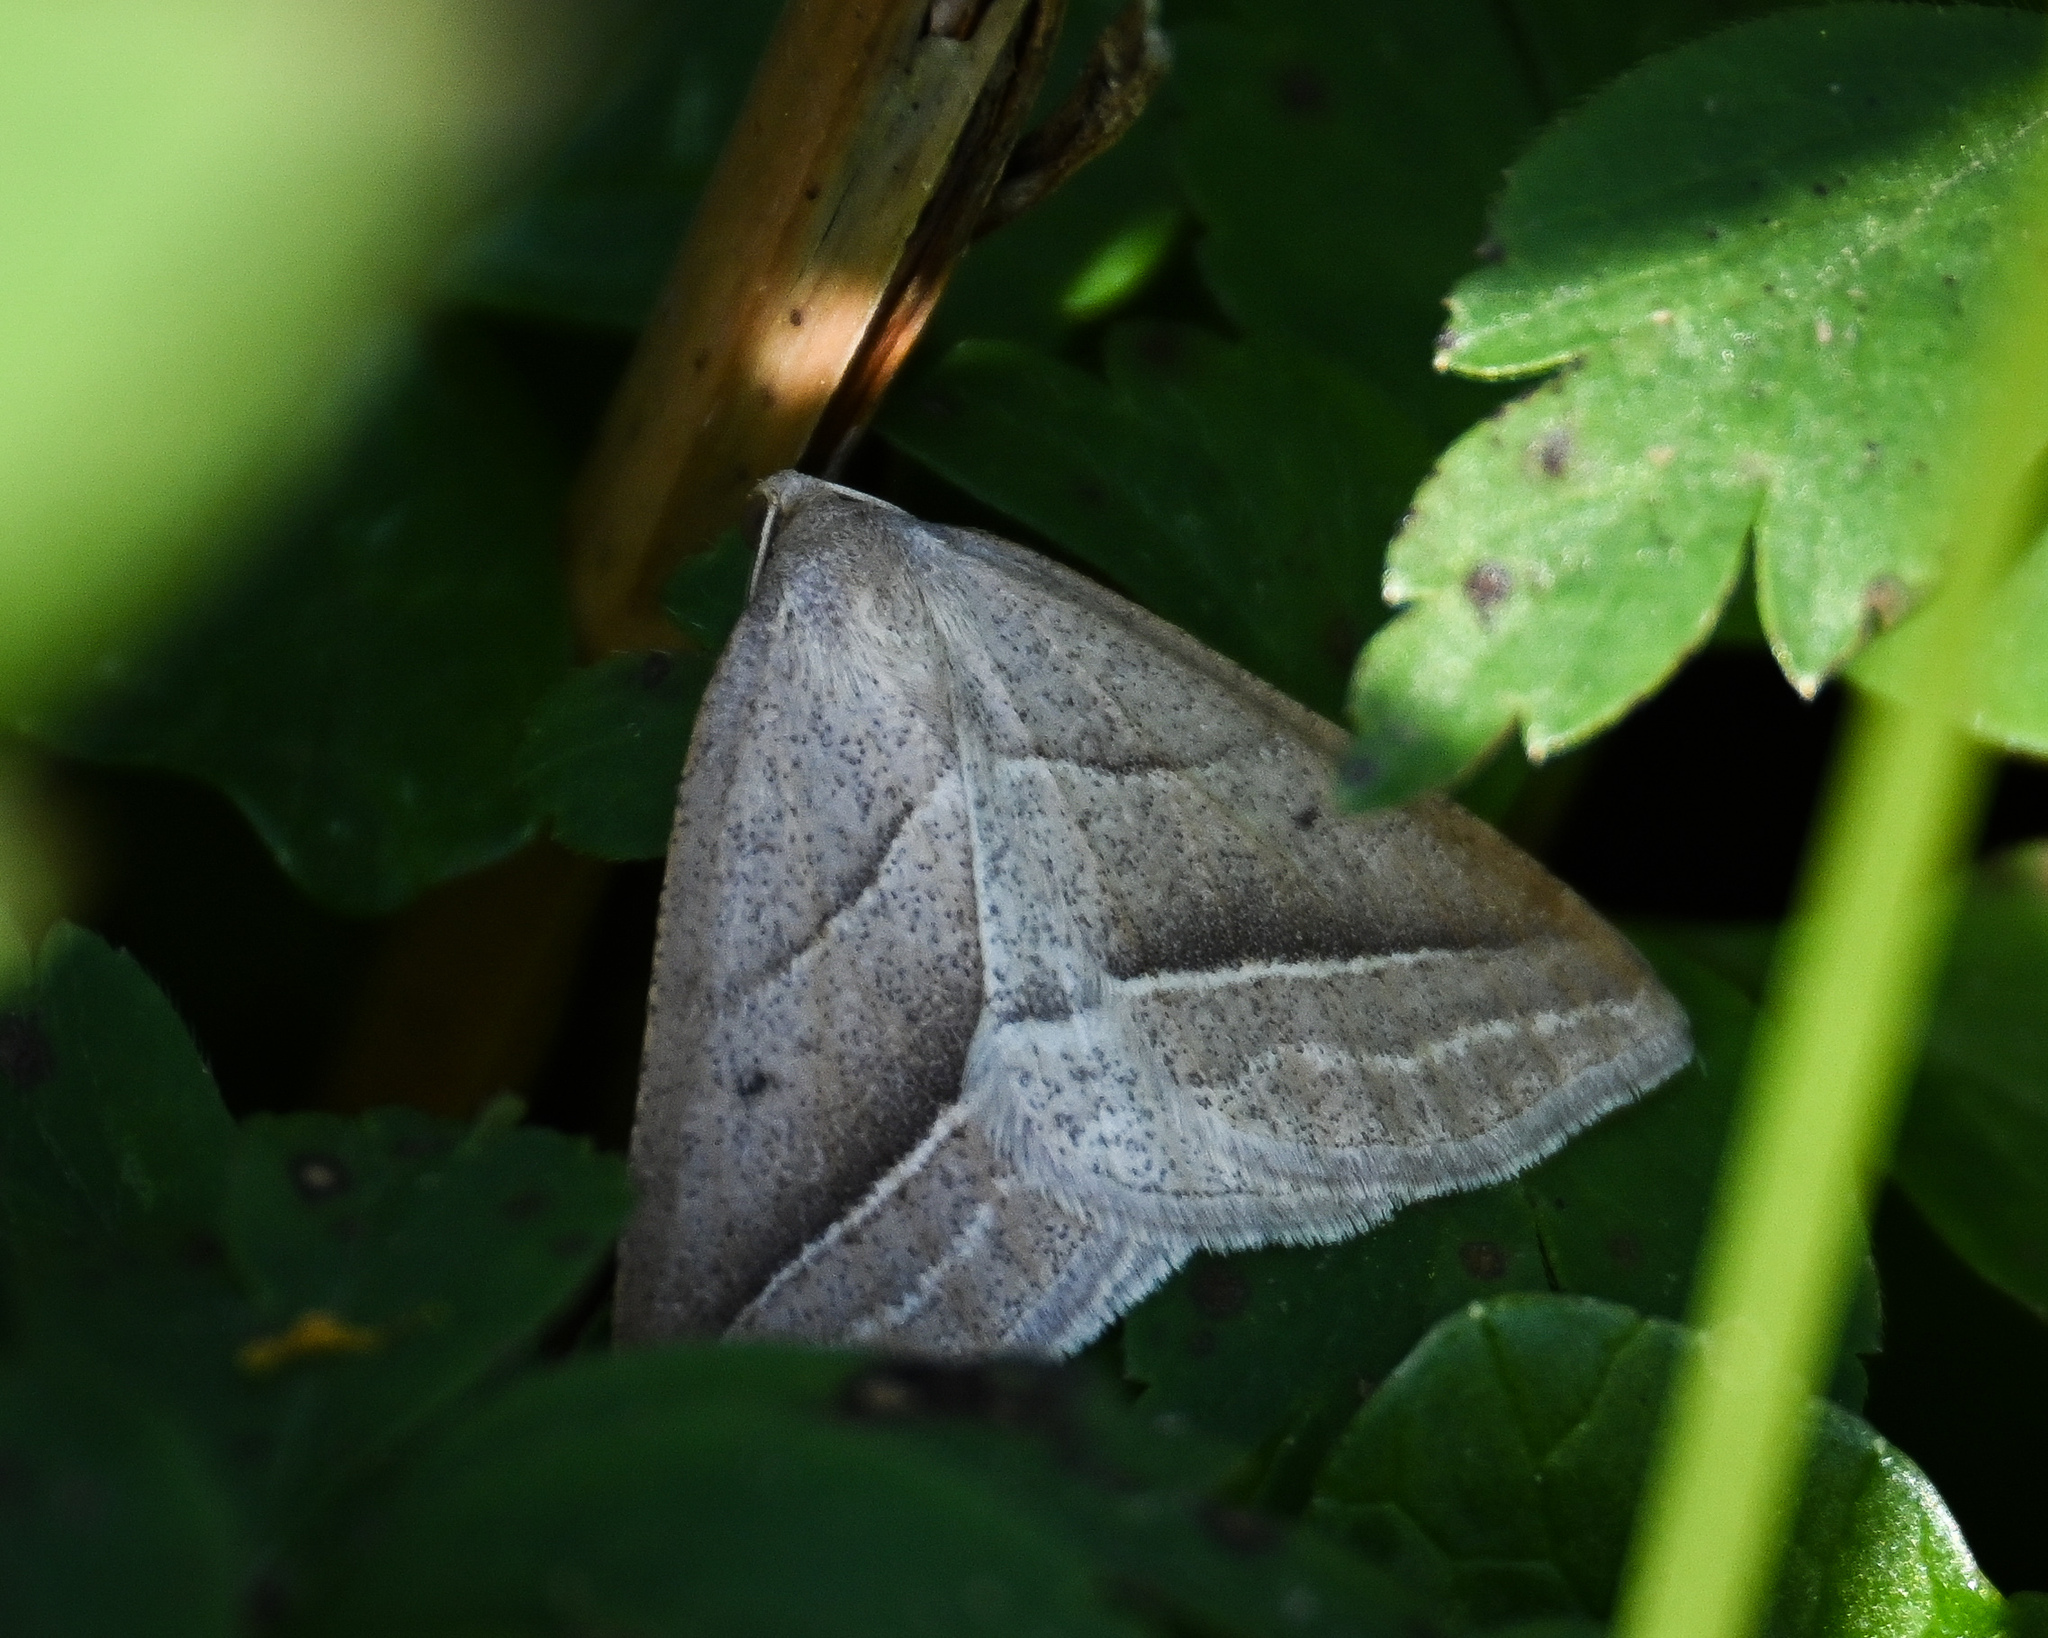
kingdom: Animalia
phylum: Arthropoda
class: Insecta
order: Lepidoptera
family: Pterophoridae
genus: Pterophorus
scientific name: Pterophorus Petrophora chlorosata
